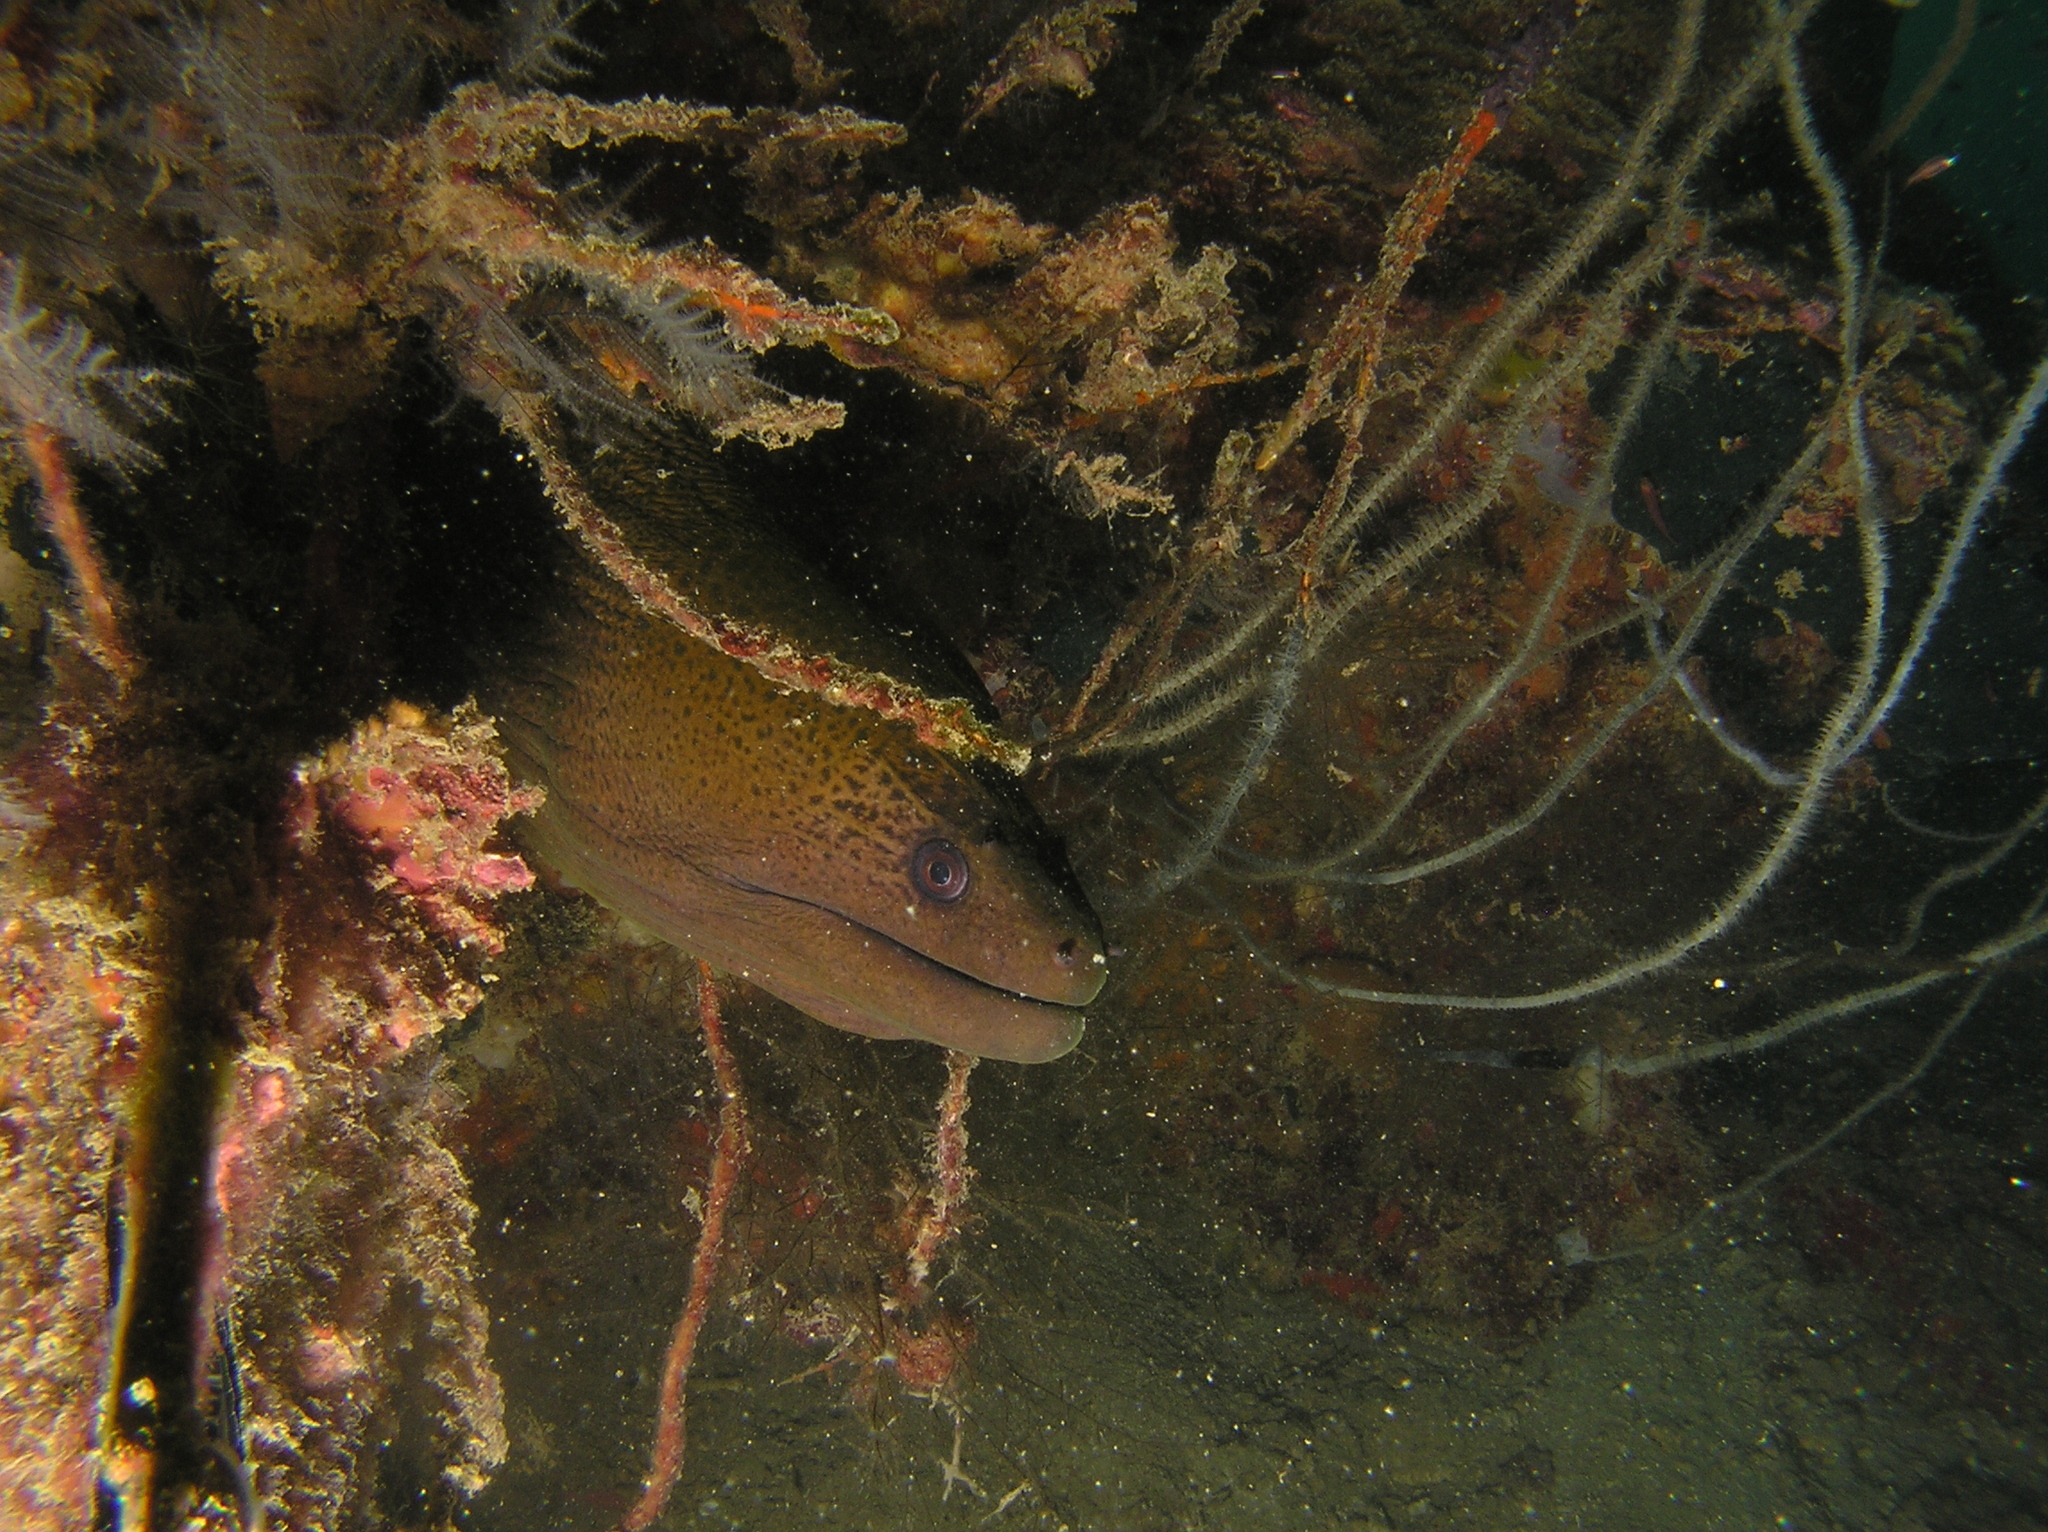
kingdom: Animalia
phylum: Chordata
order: Anguilliformes
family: Muraenidae
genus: Gymnothorax
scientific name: Gymnothorax javanicus
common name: Giant moray
